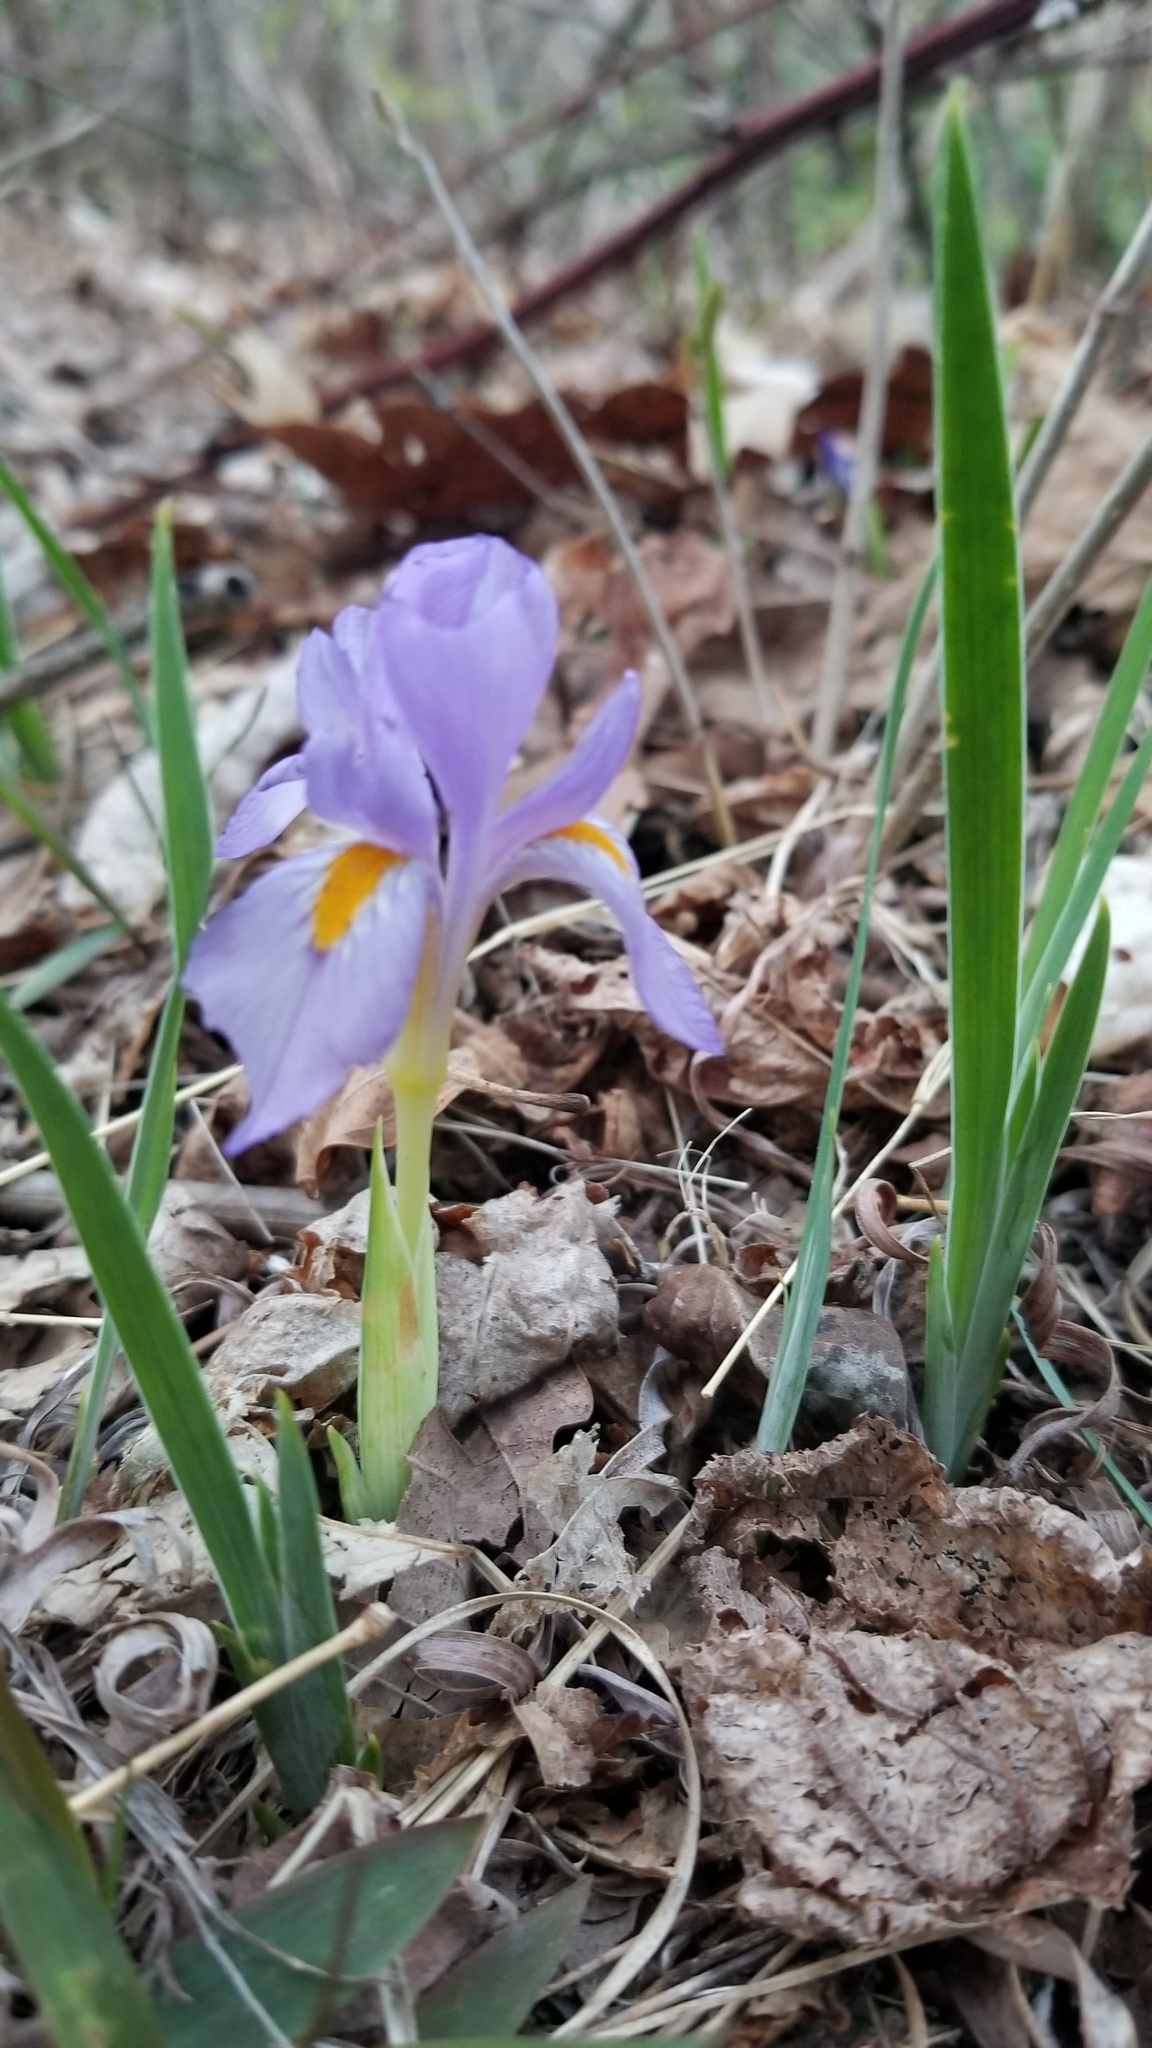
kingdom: Plantae
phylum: Tracheophyta
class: Liliopsida
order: Asparagales
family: Iridaceae
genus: Iris
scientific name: Iris verna
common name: Dwarf iris
